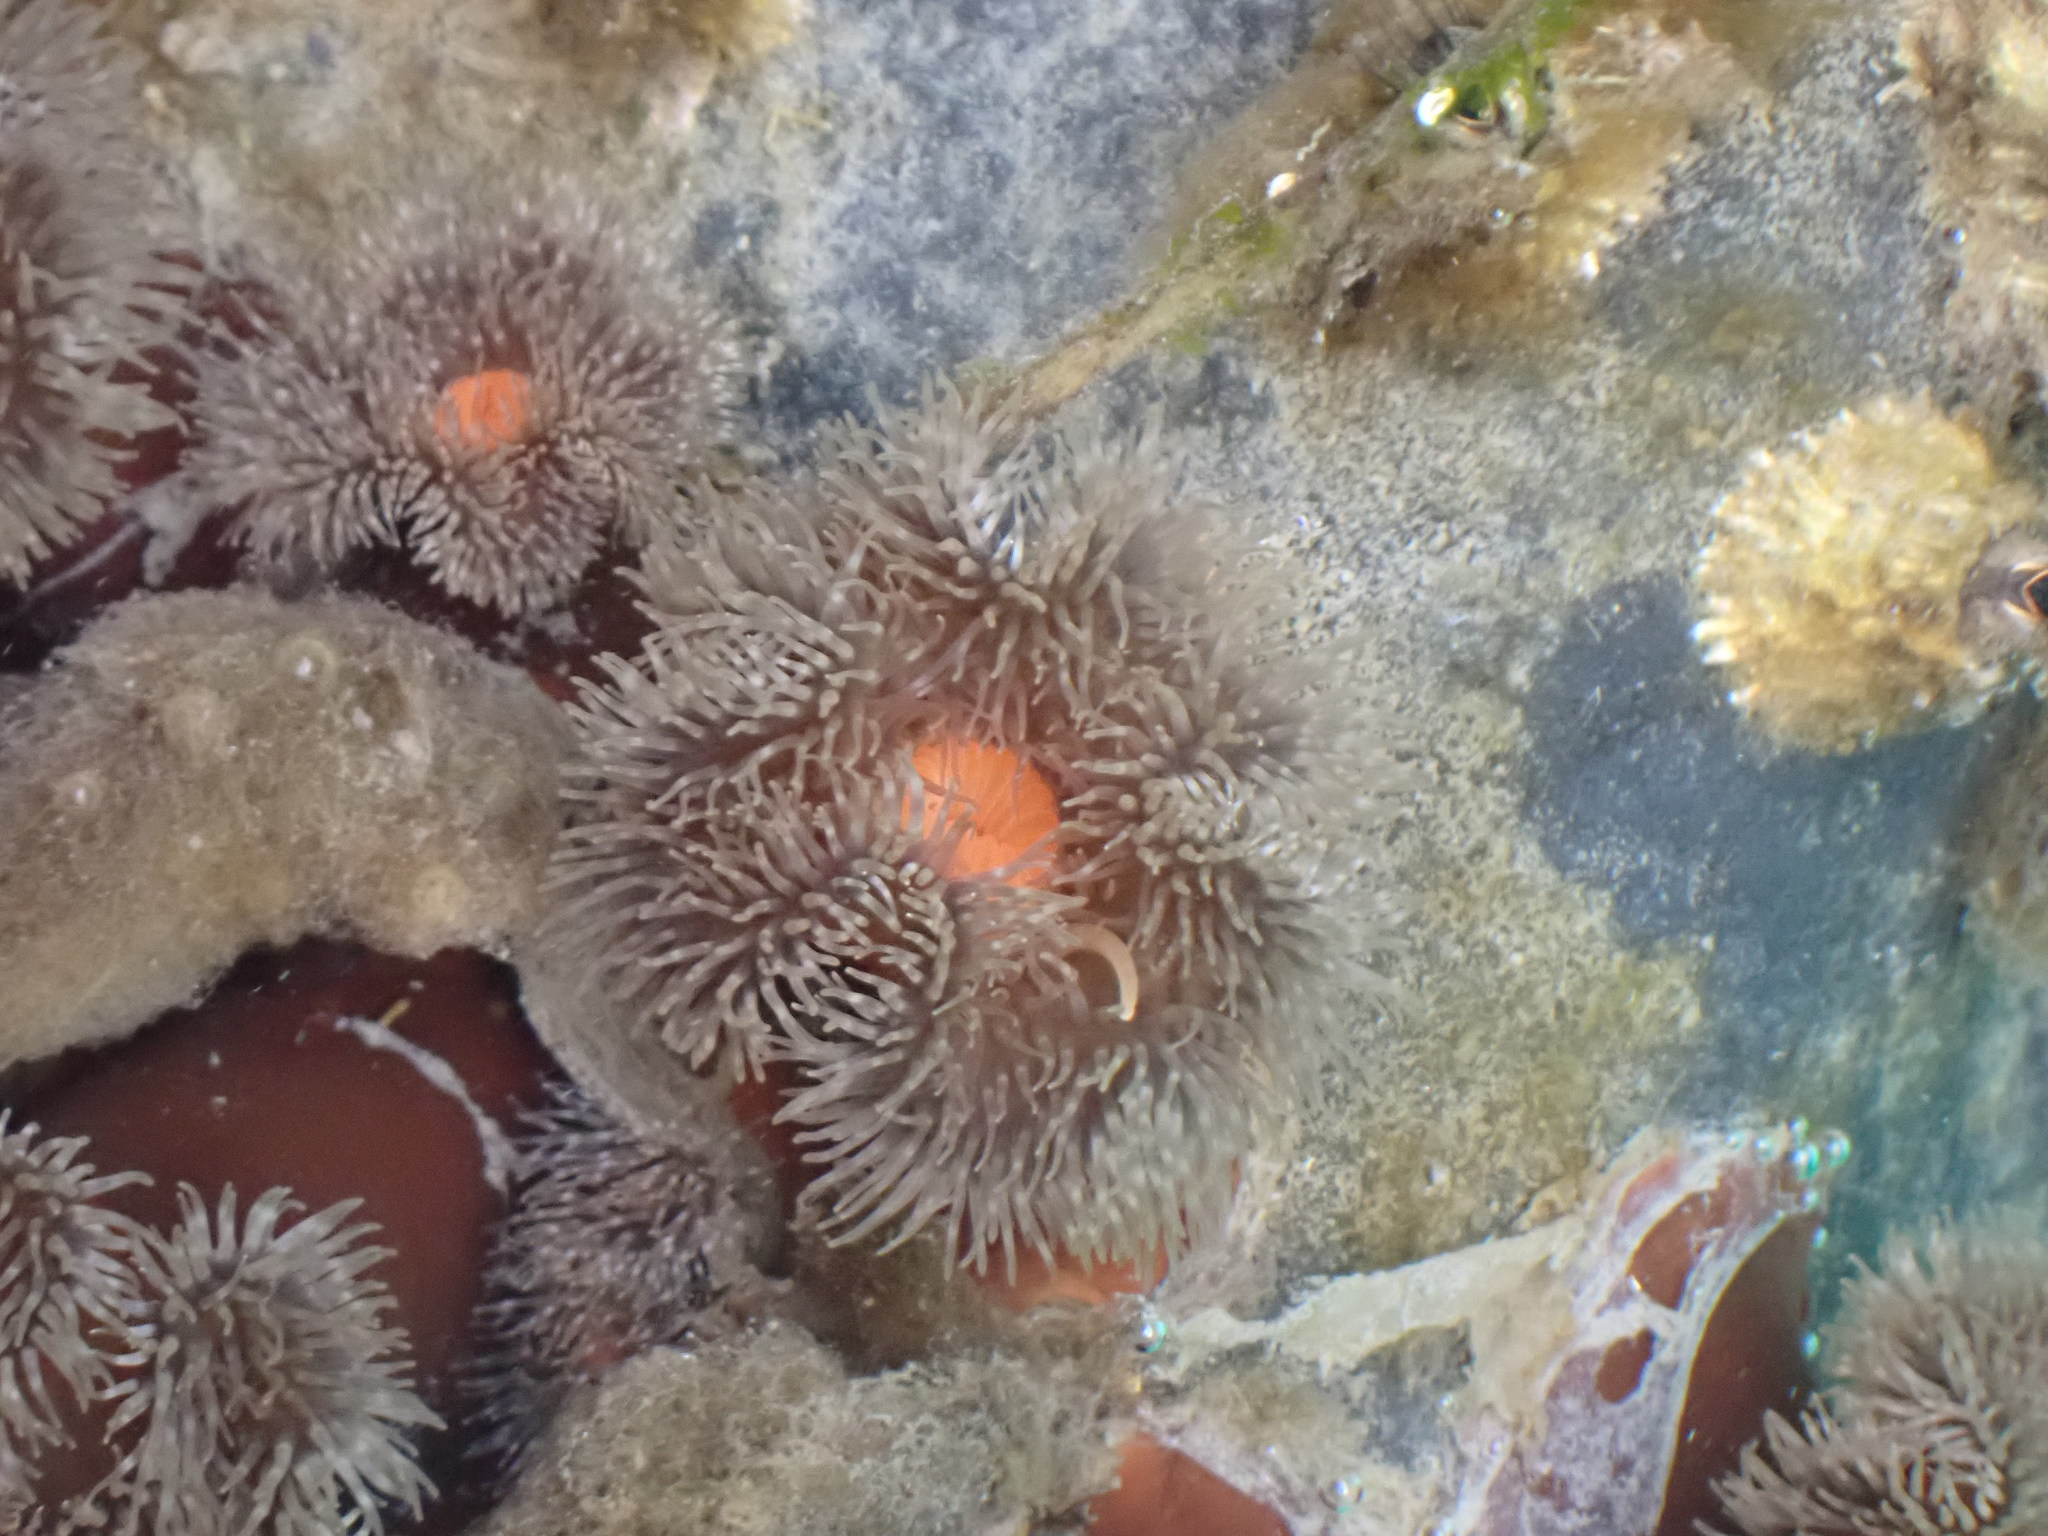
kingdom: Animalia
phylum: Cnidaria
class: Anthozoa
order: Actiniaria
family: Metridiidae
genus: Metridium
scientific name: Metridium senile
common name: Clonal plumose anemone
